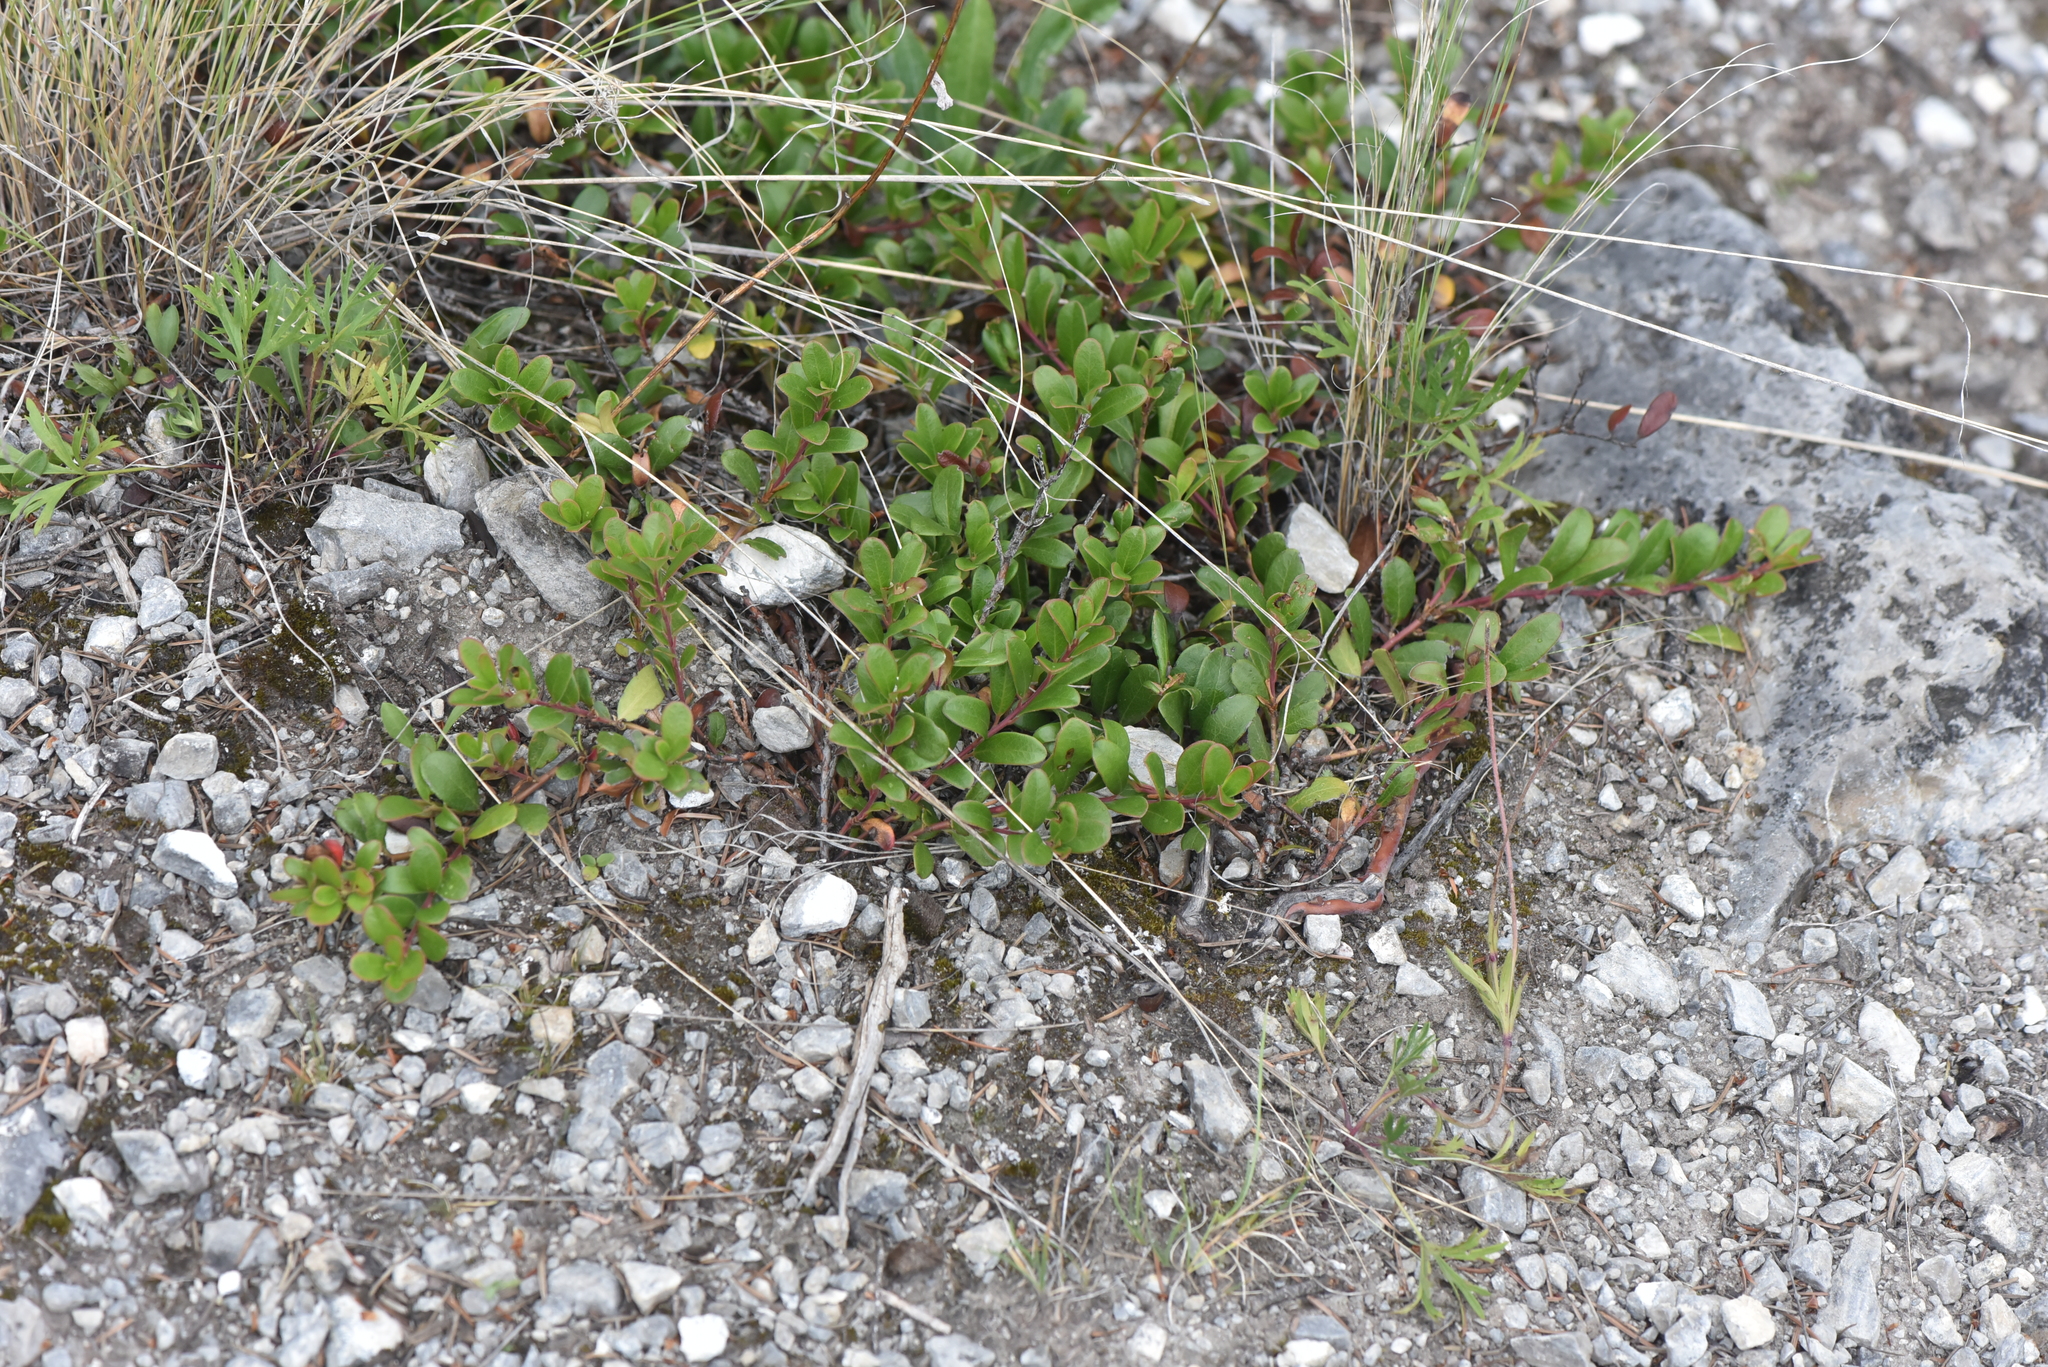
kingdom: Plantae
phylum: Tracheophyta
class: Magnoliopsida
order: Ericales
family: Ericaceae
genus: Arctostaphylos
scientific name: Arctostaphylos uva-ursi
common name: Bearberry
